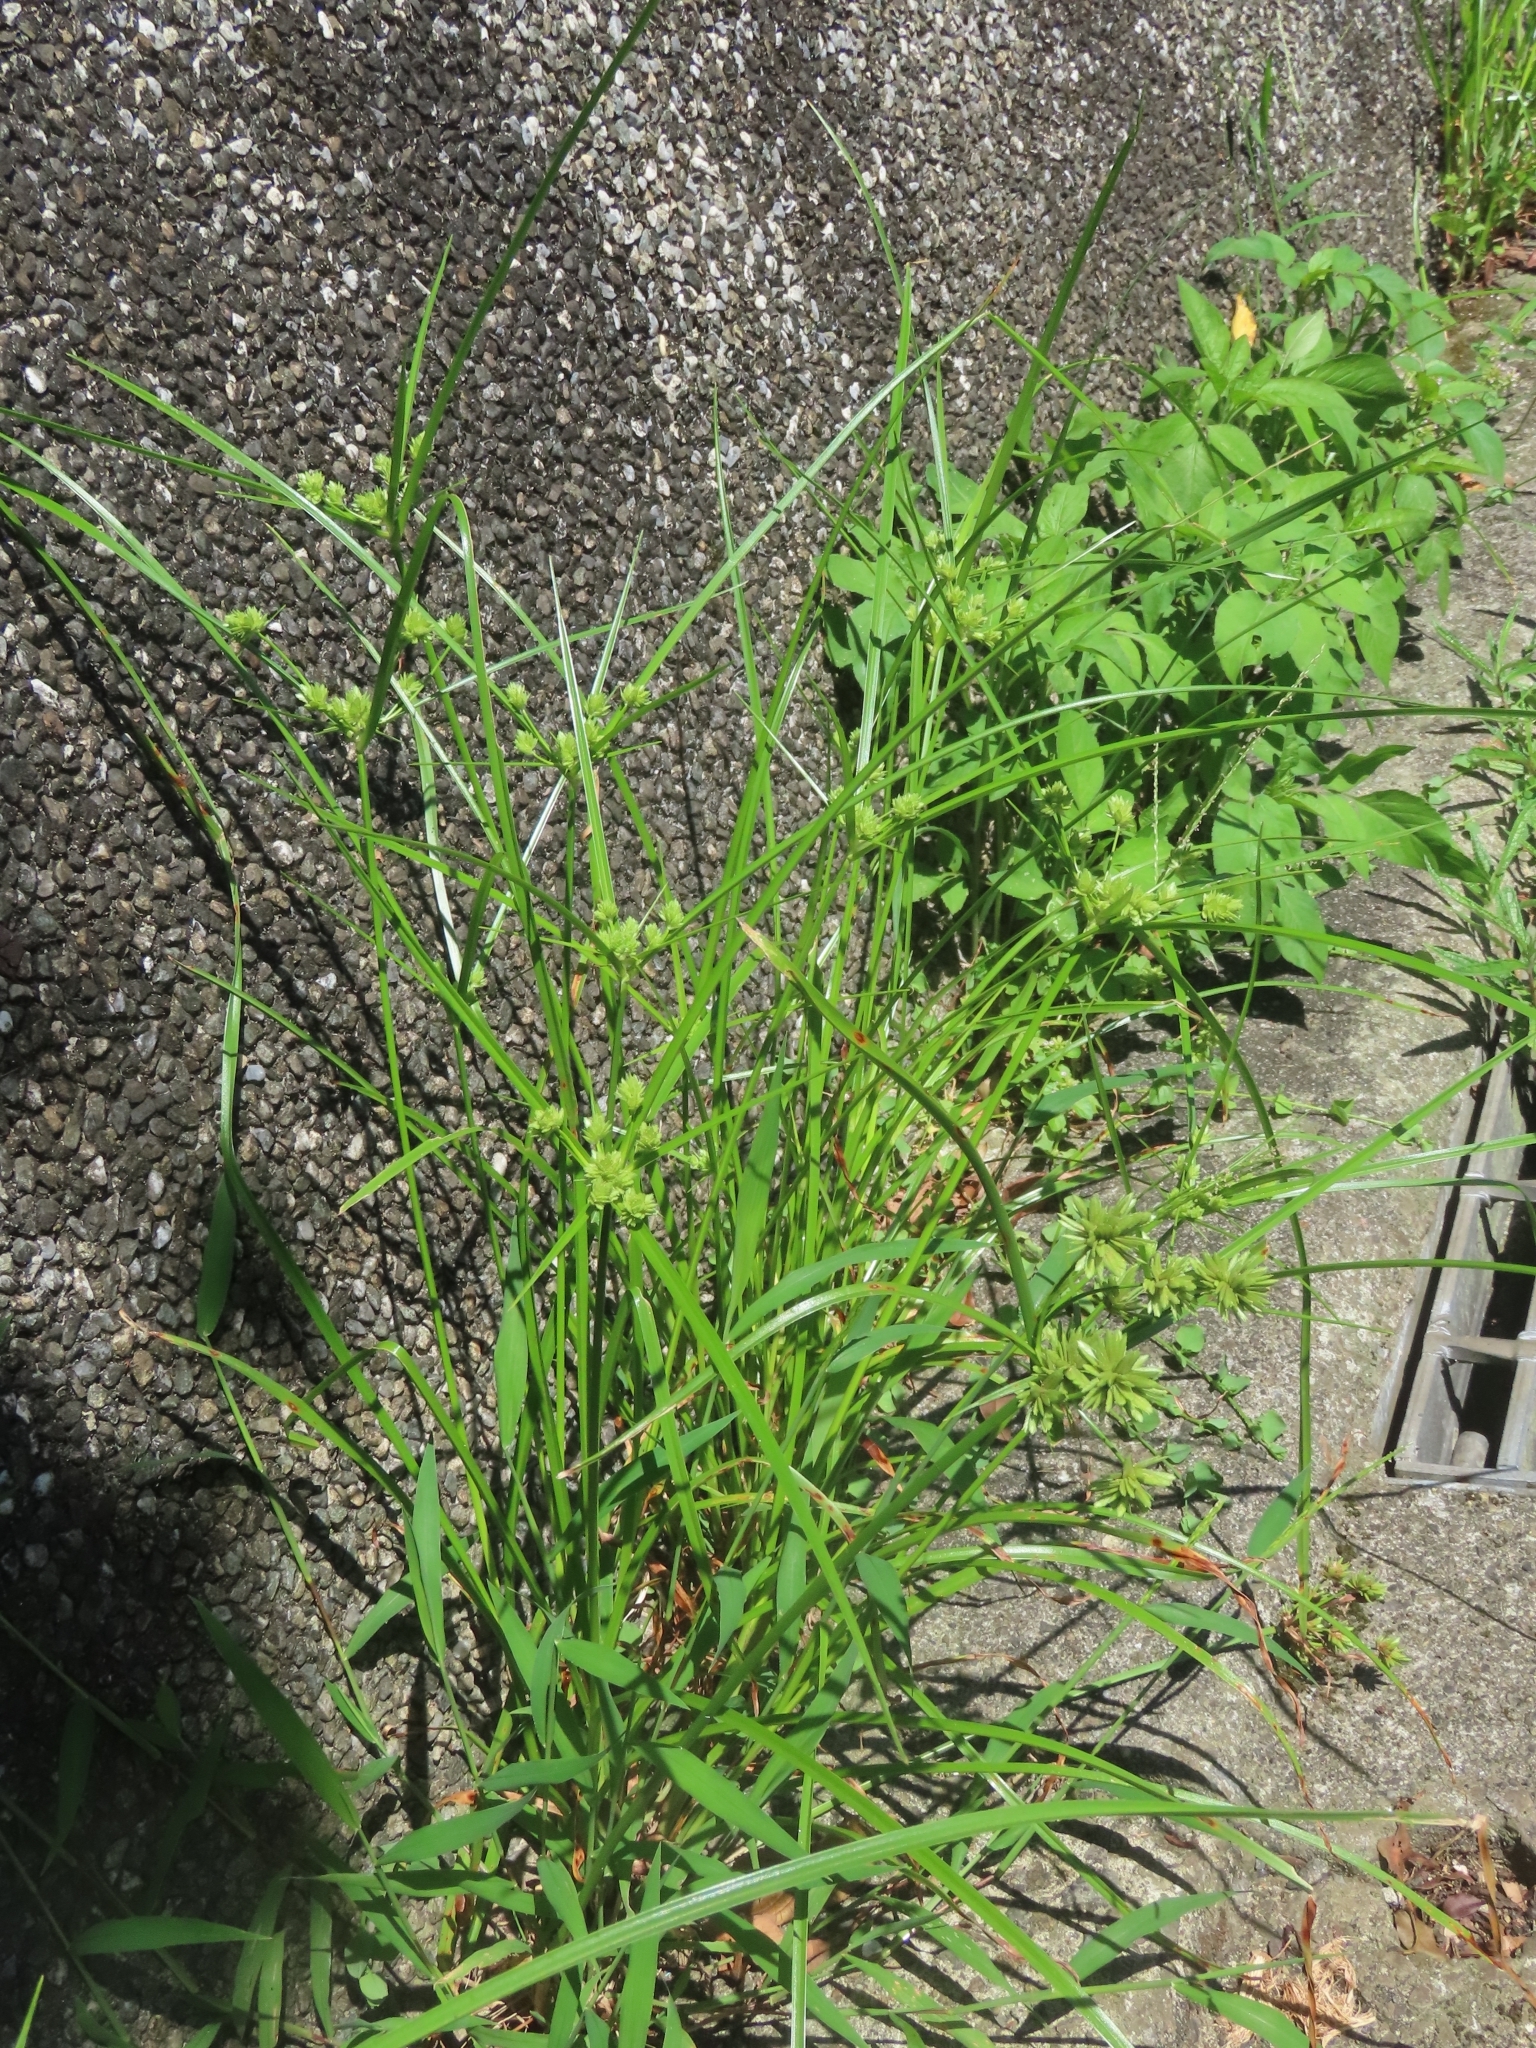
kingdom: Plantae
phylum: Tracheophyta
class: Liliopsida
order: Poales
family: Cyperaceae
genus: Cyperus
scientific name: Cyperus eragrostis
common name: Tall flatsedge
